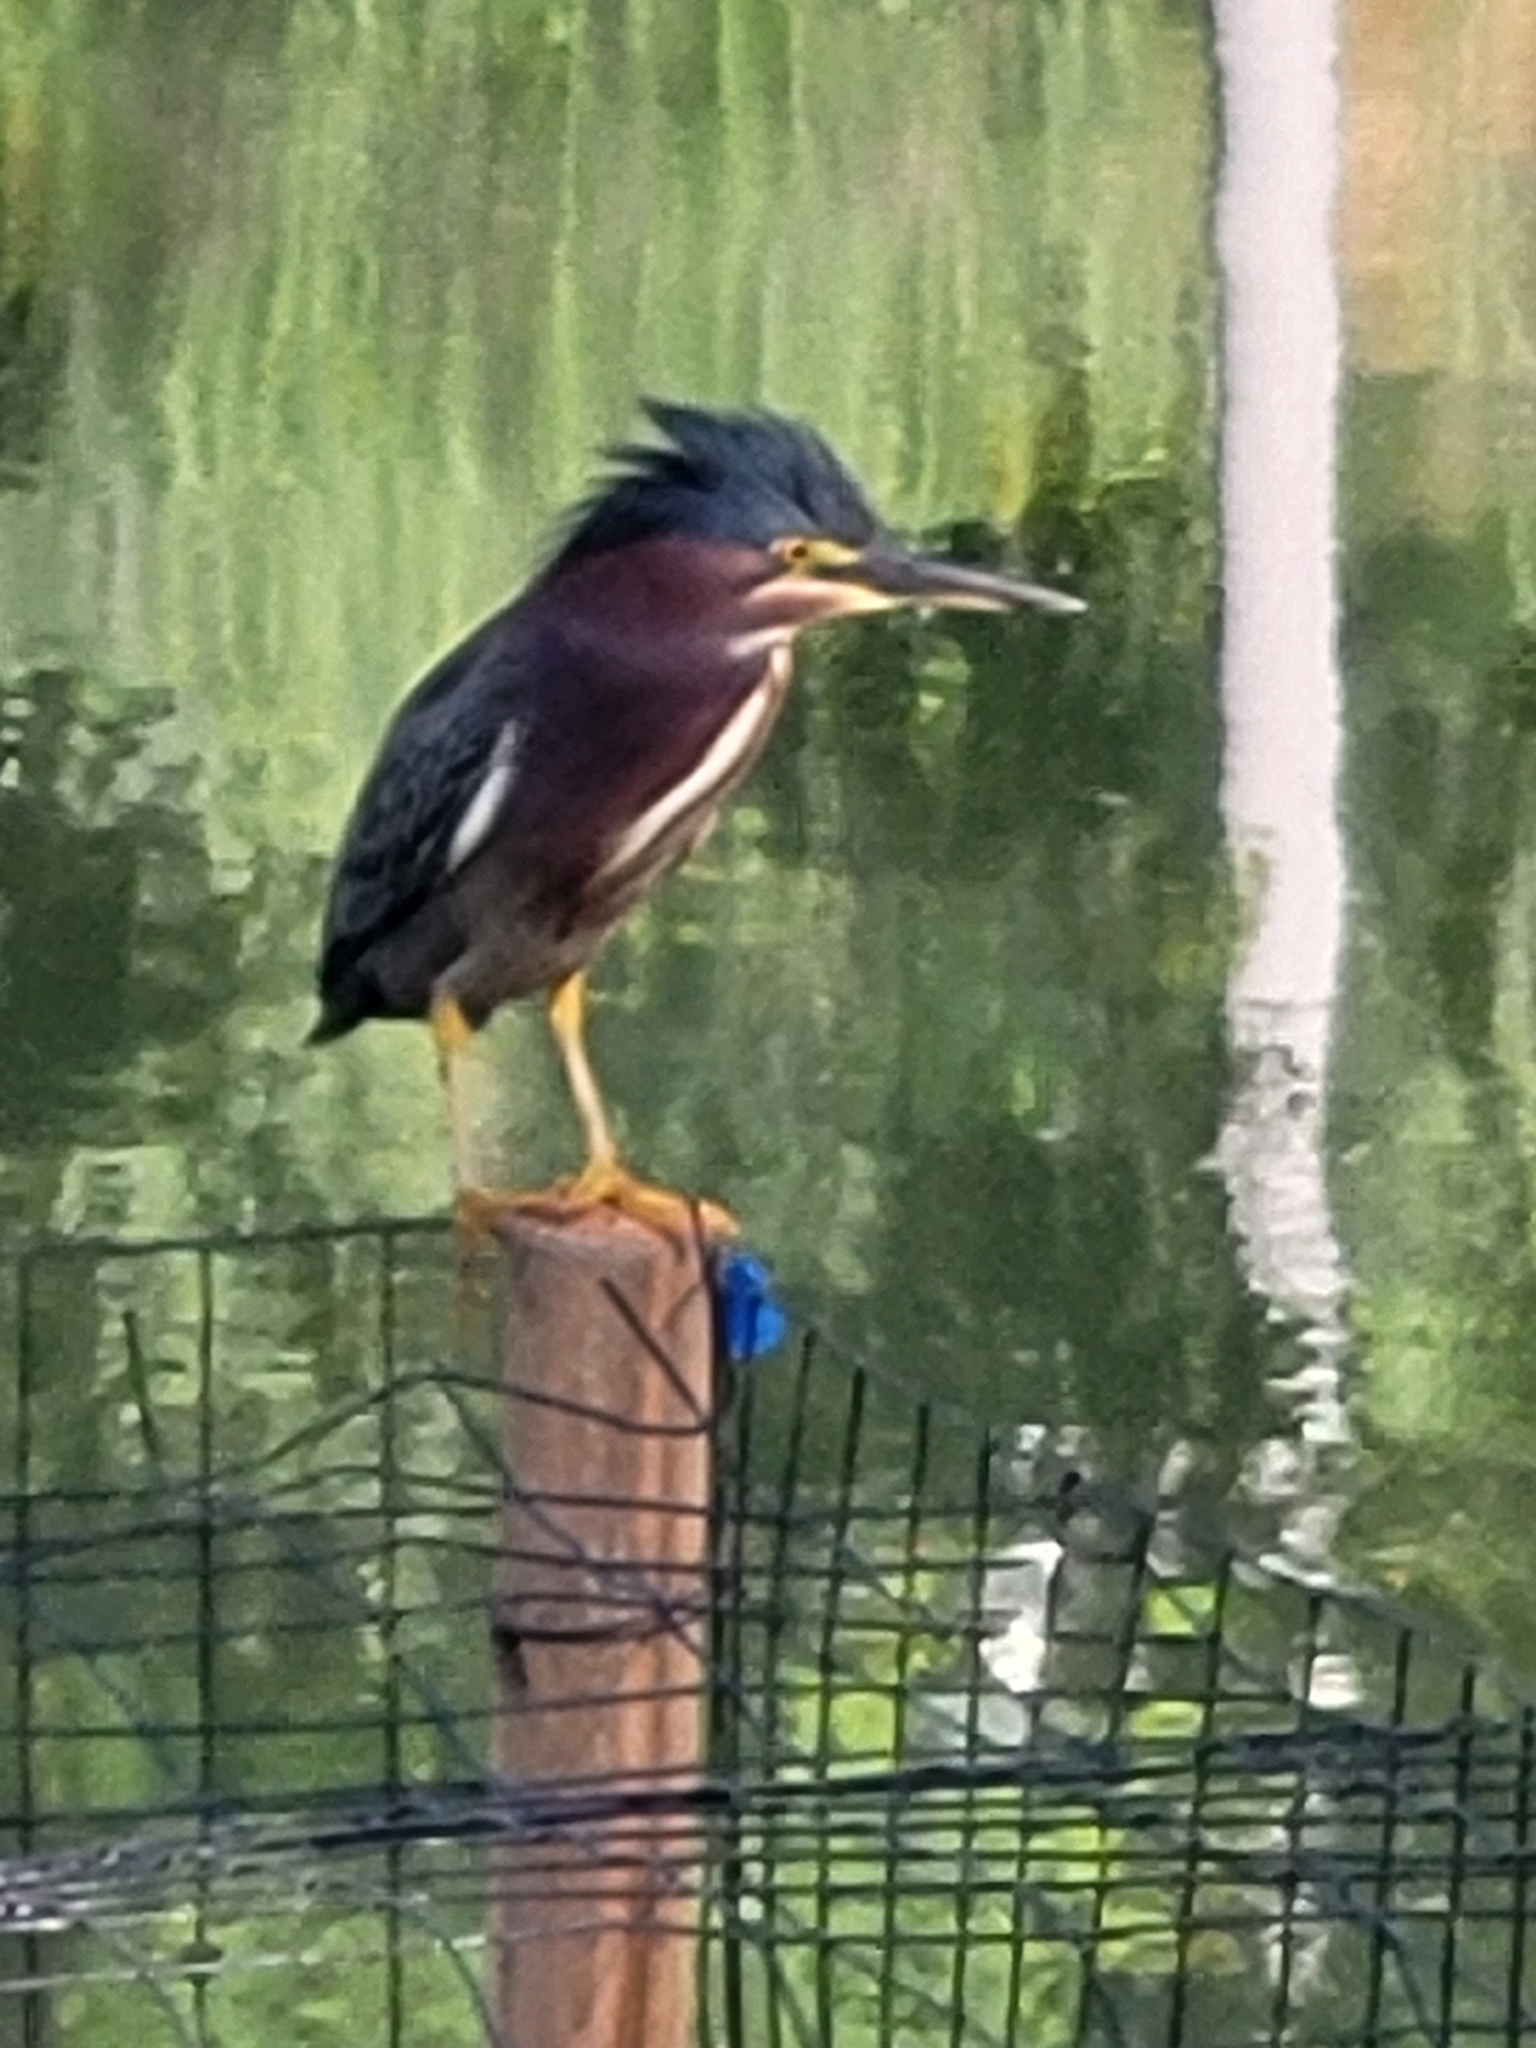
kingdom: Animalia
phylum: Chordata
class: Aves
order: Pelecaniformes
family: Ardeidae
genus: Butorides
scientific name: Butorides virescens
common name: Green heron
